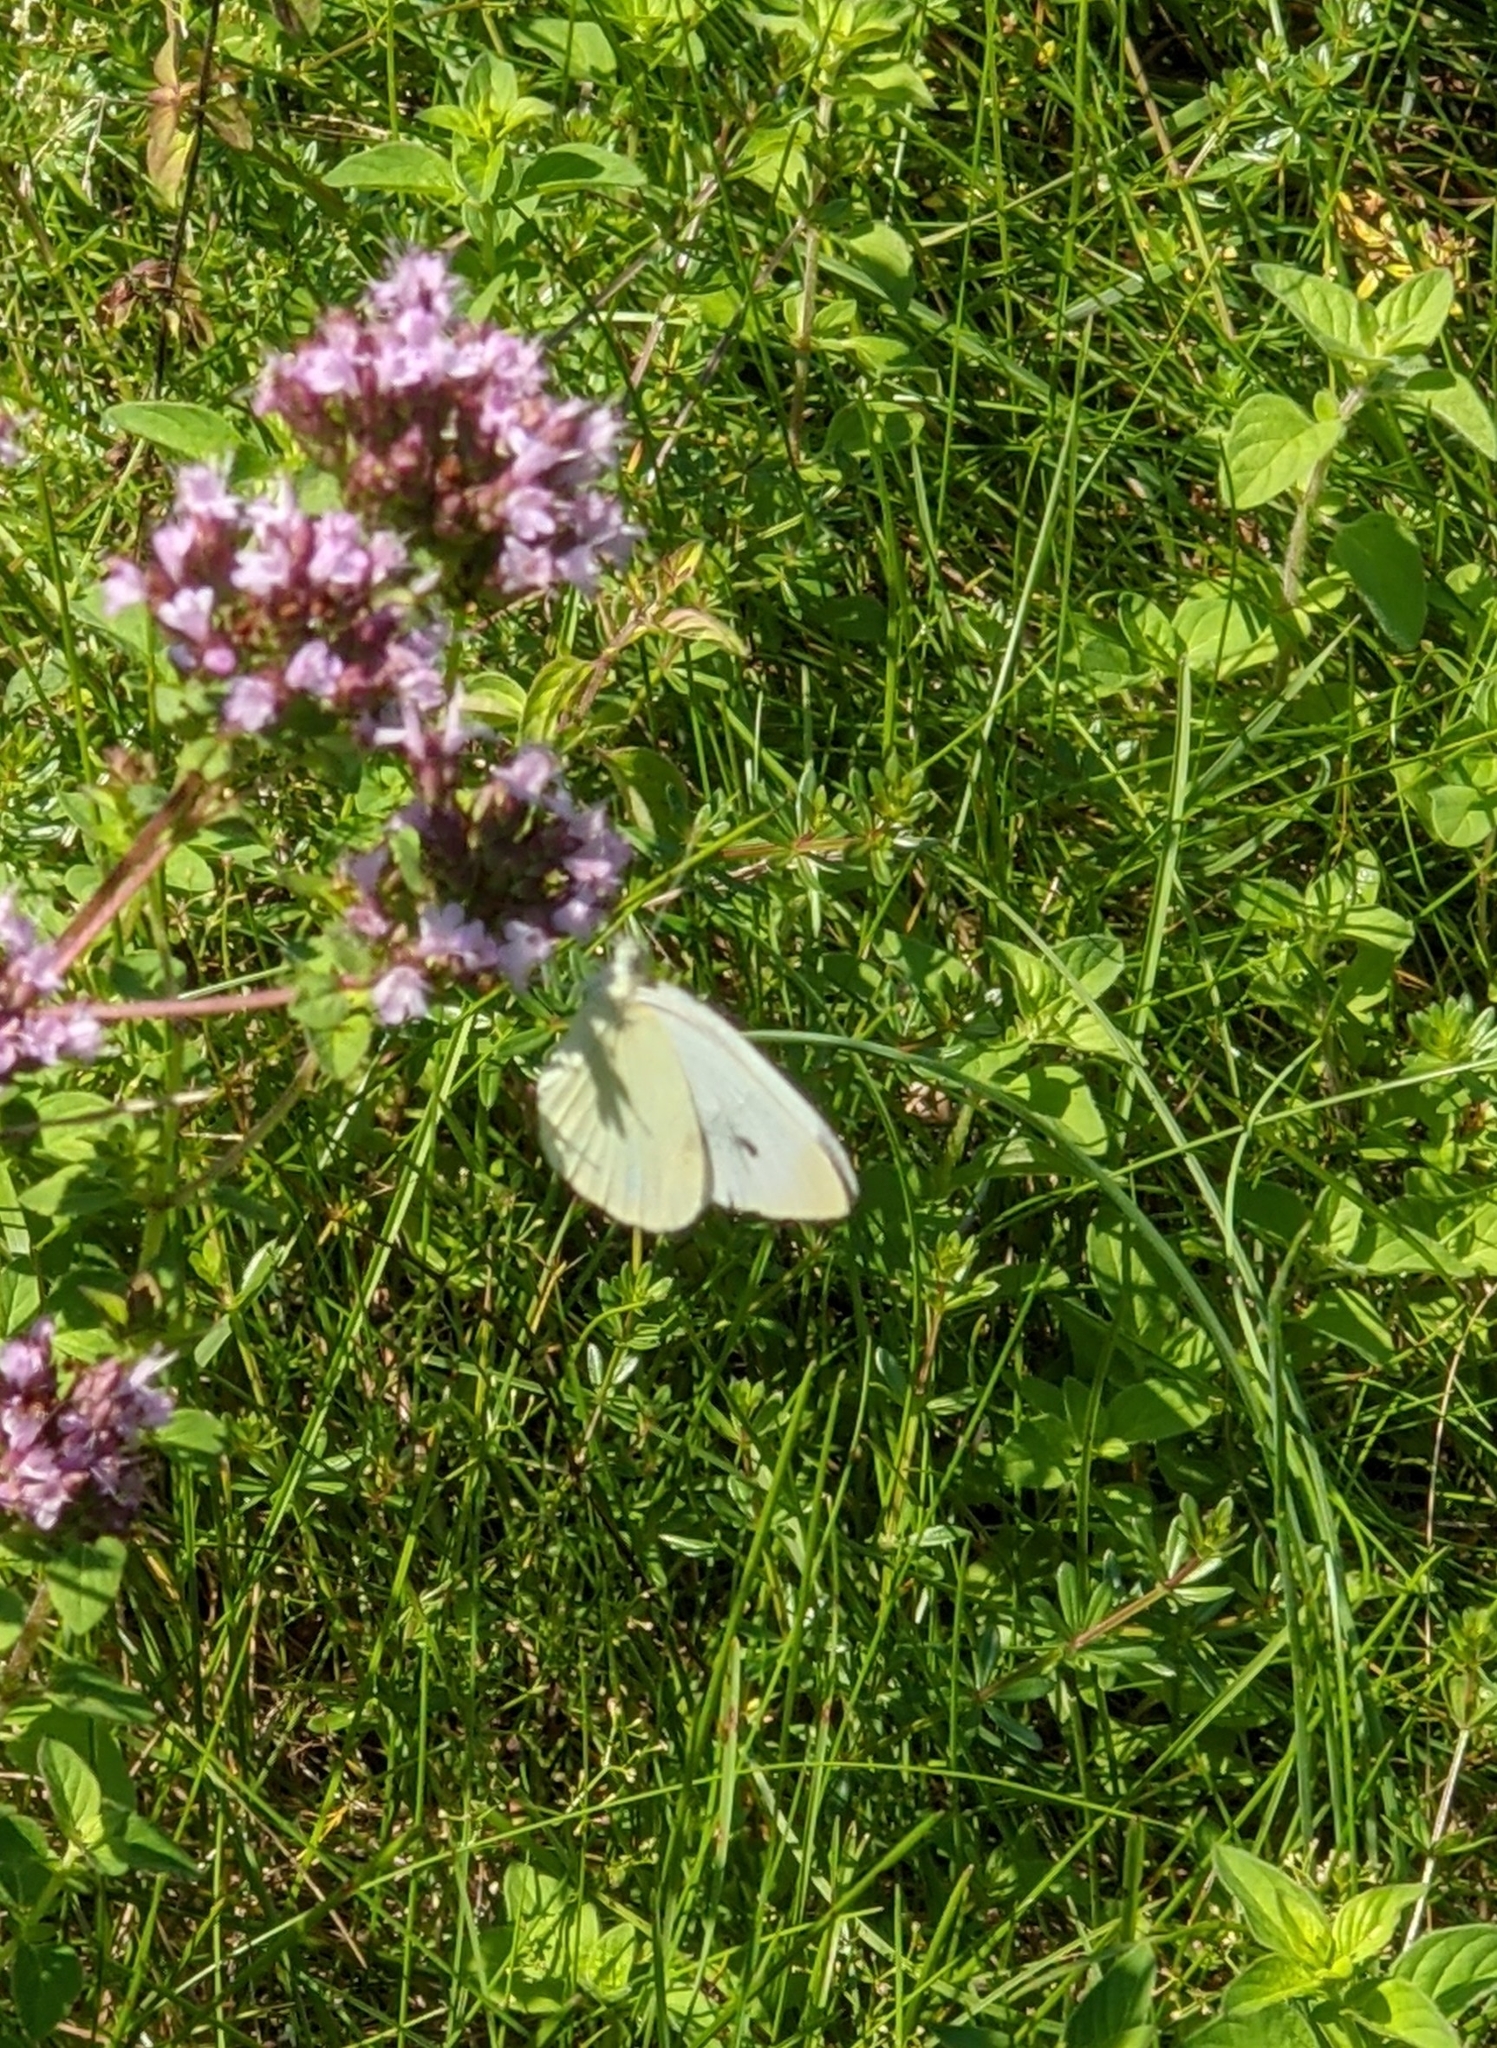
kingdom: Animalia
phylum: Arthropoda
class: Insecta
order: Lepidoptera
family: Pieridae
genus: Pieris
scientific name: Pieris rapae
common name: Small white
